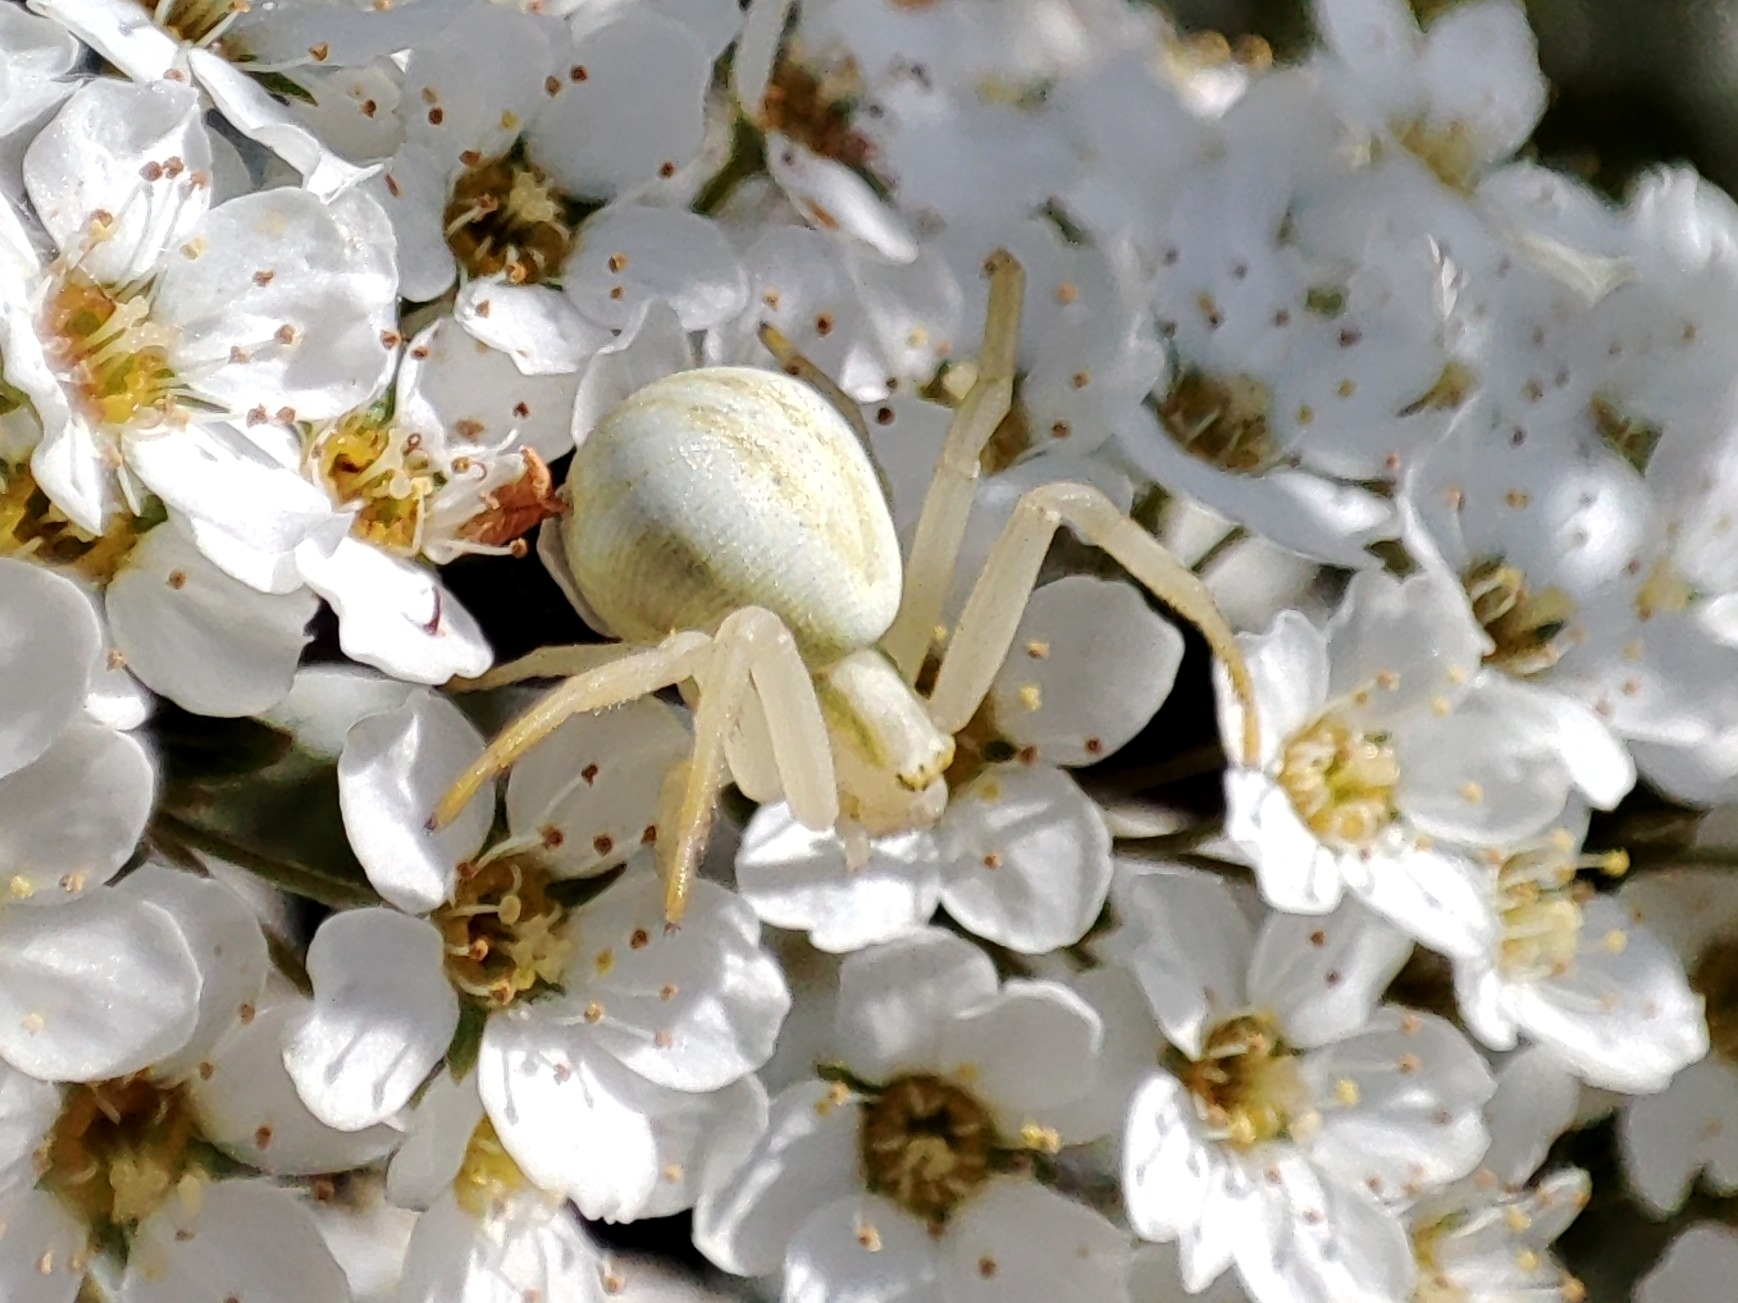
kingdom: Animalia
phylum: Arthropoda
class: Arachnida
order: Araneae
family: Thomisidae
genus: Misumena
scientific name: Misumena vatia
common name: Goldenrod crab spider
